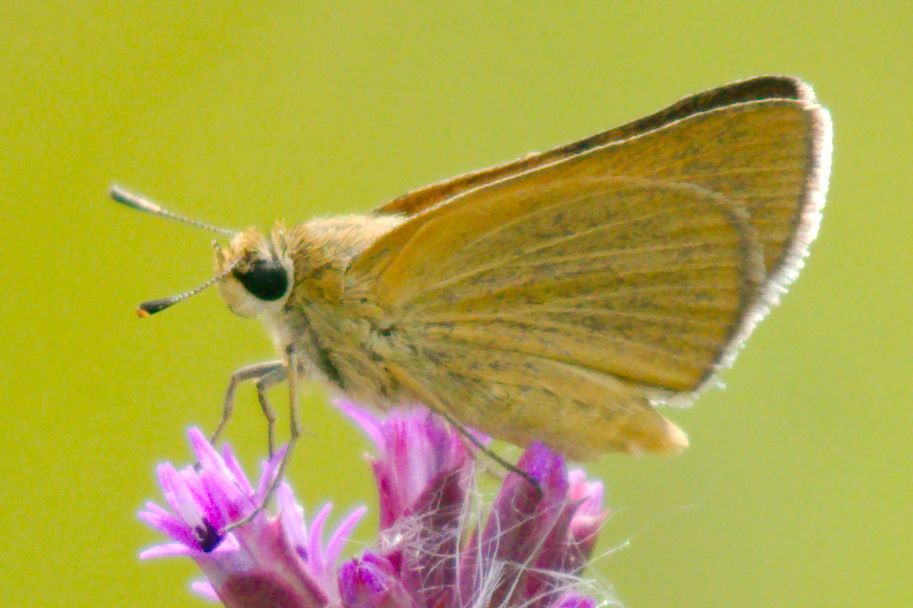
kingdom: Animalia
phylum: Arthropoda
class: Insecta
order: Lepidoptera
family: Hesperiidae
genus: Atrytone
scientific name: Atrytone arogos
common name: Arogos skipper
